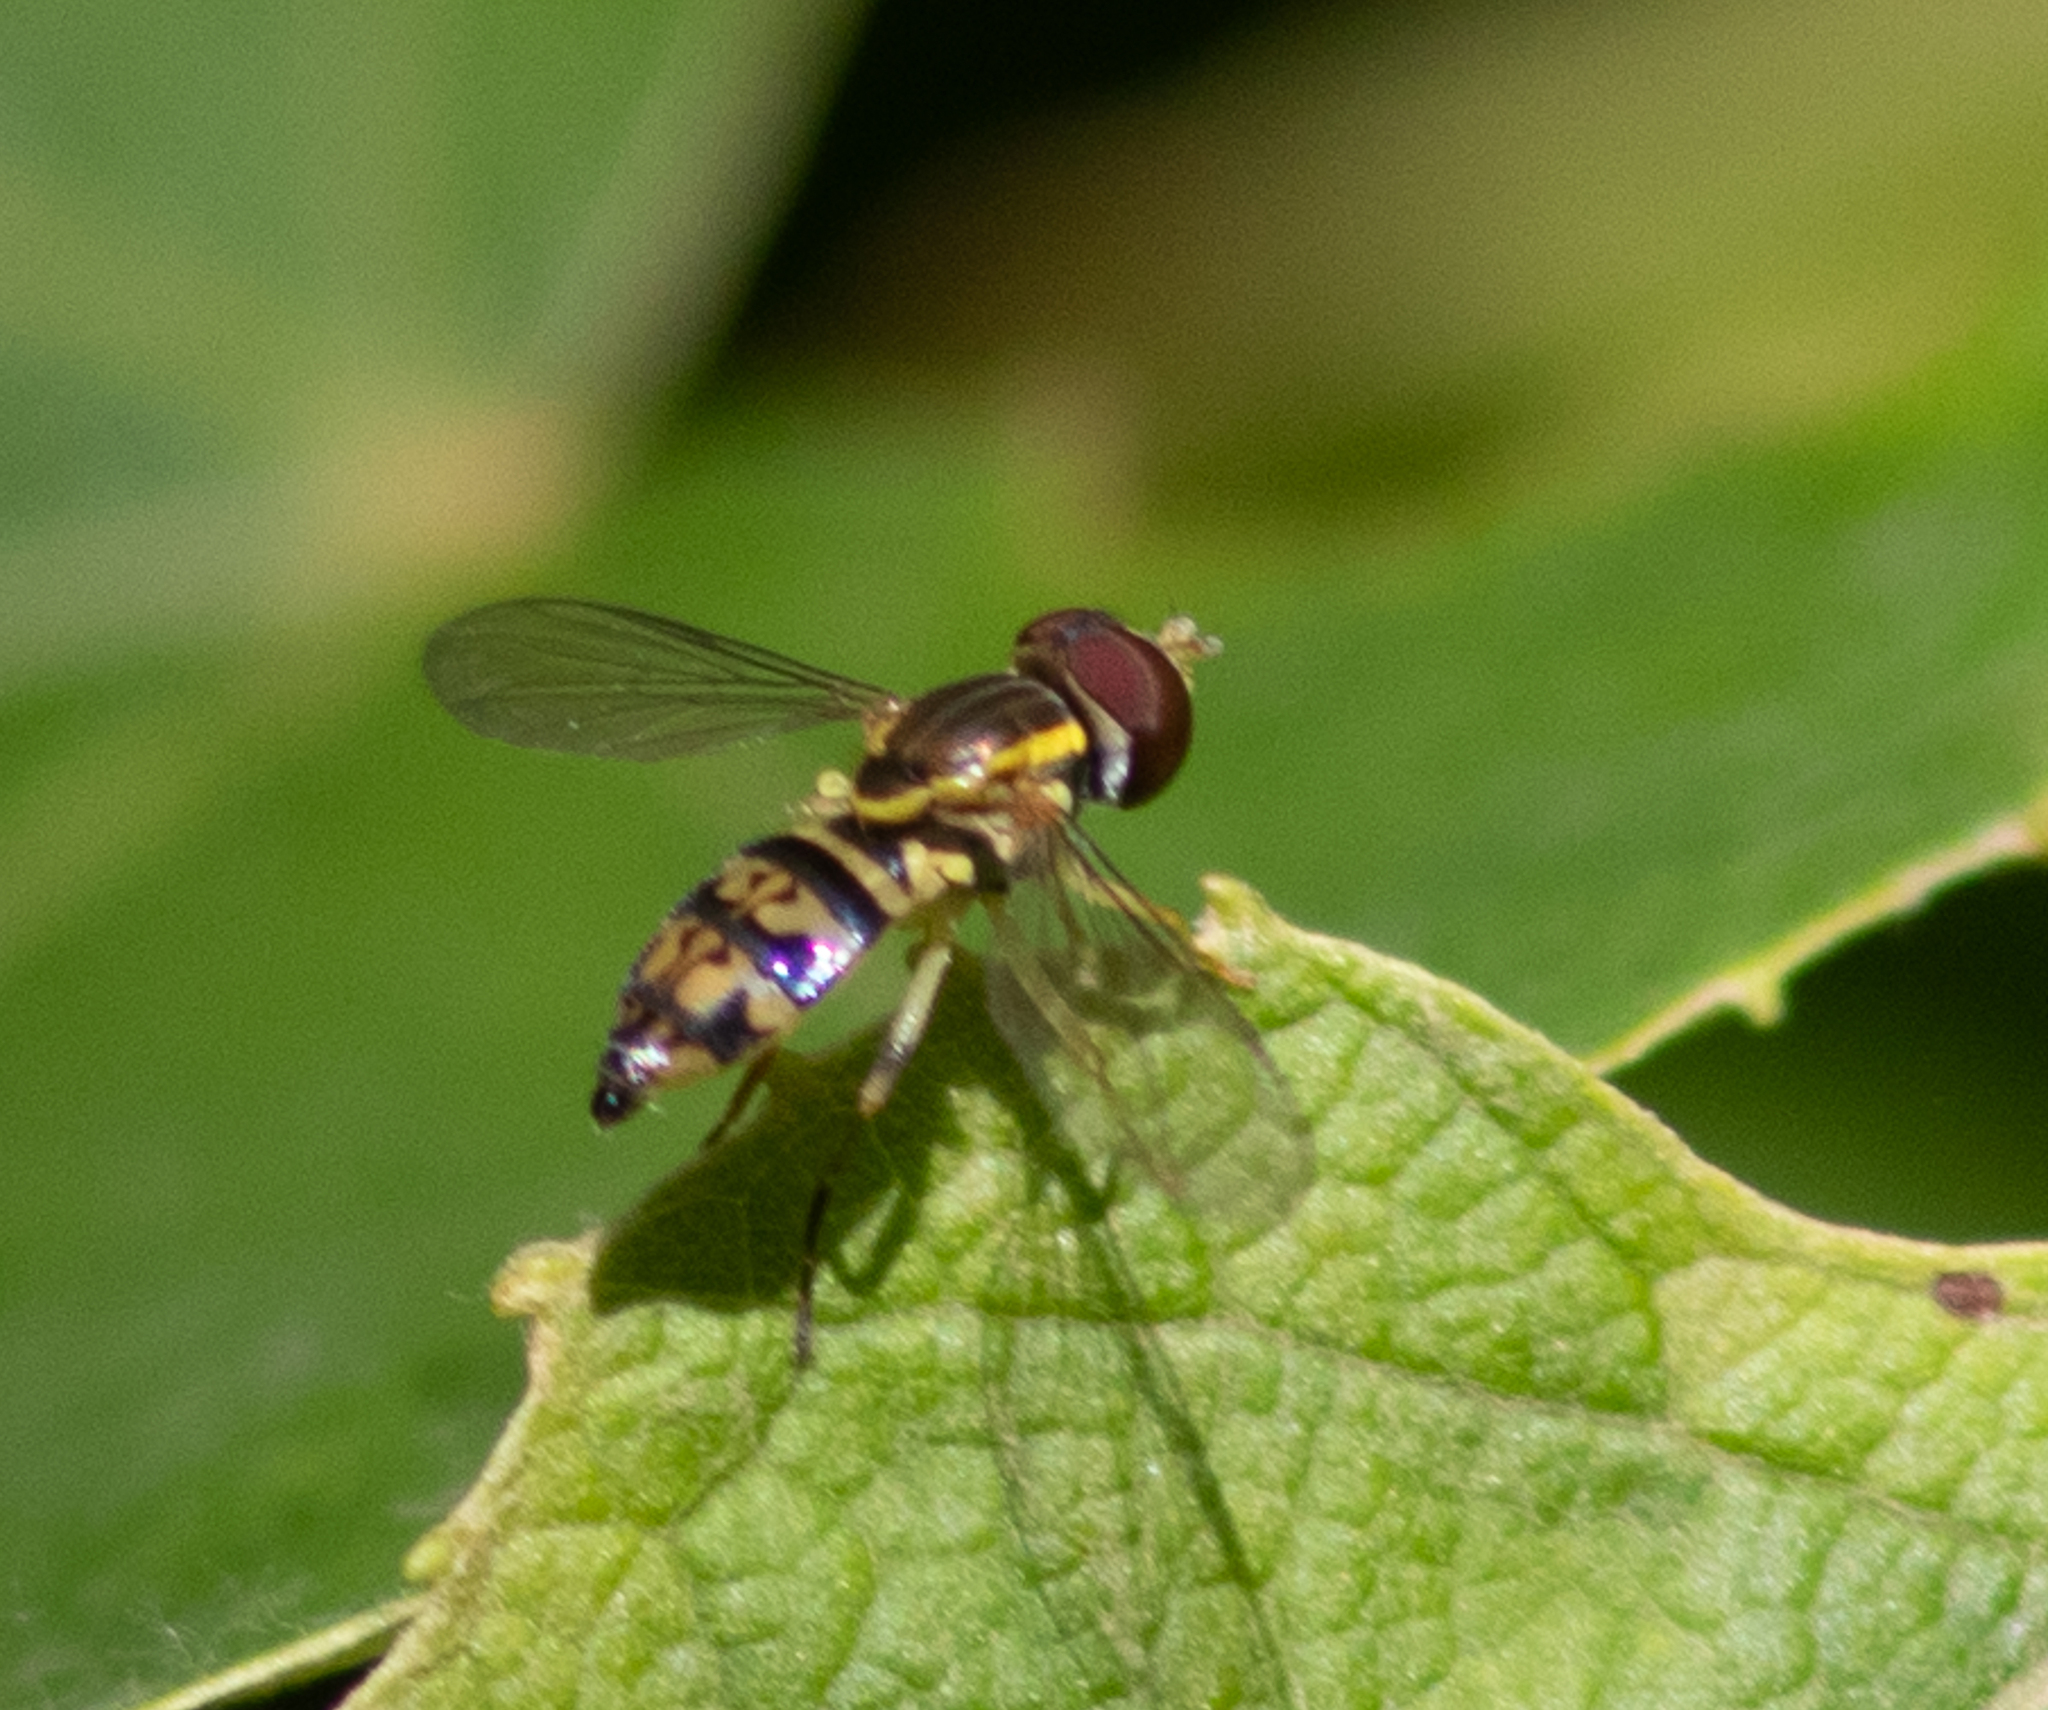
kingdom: Animalia
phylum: Arthropoda
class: Insecta
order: Diptera
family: Syrphidae
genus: Toxomerus
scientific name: Toxomerus geminatus
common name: Eastern calligrapher
